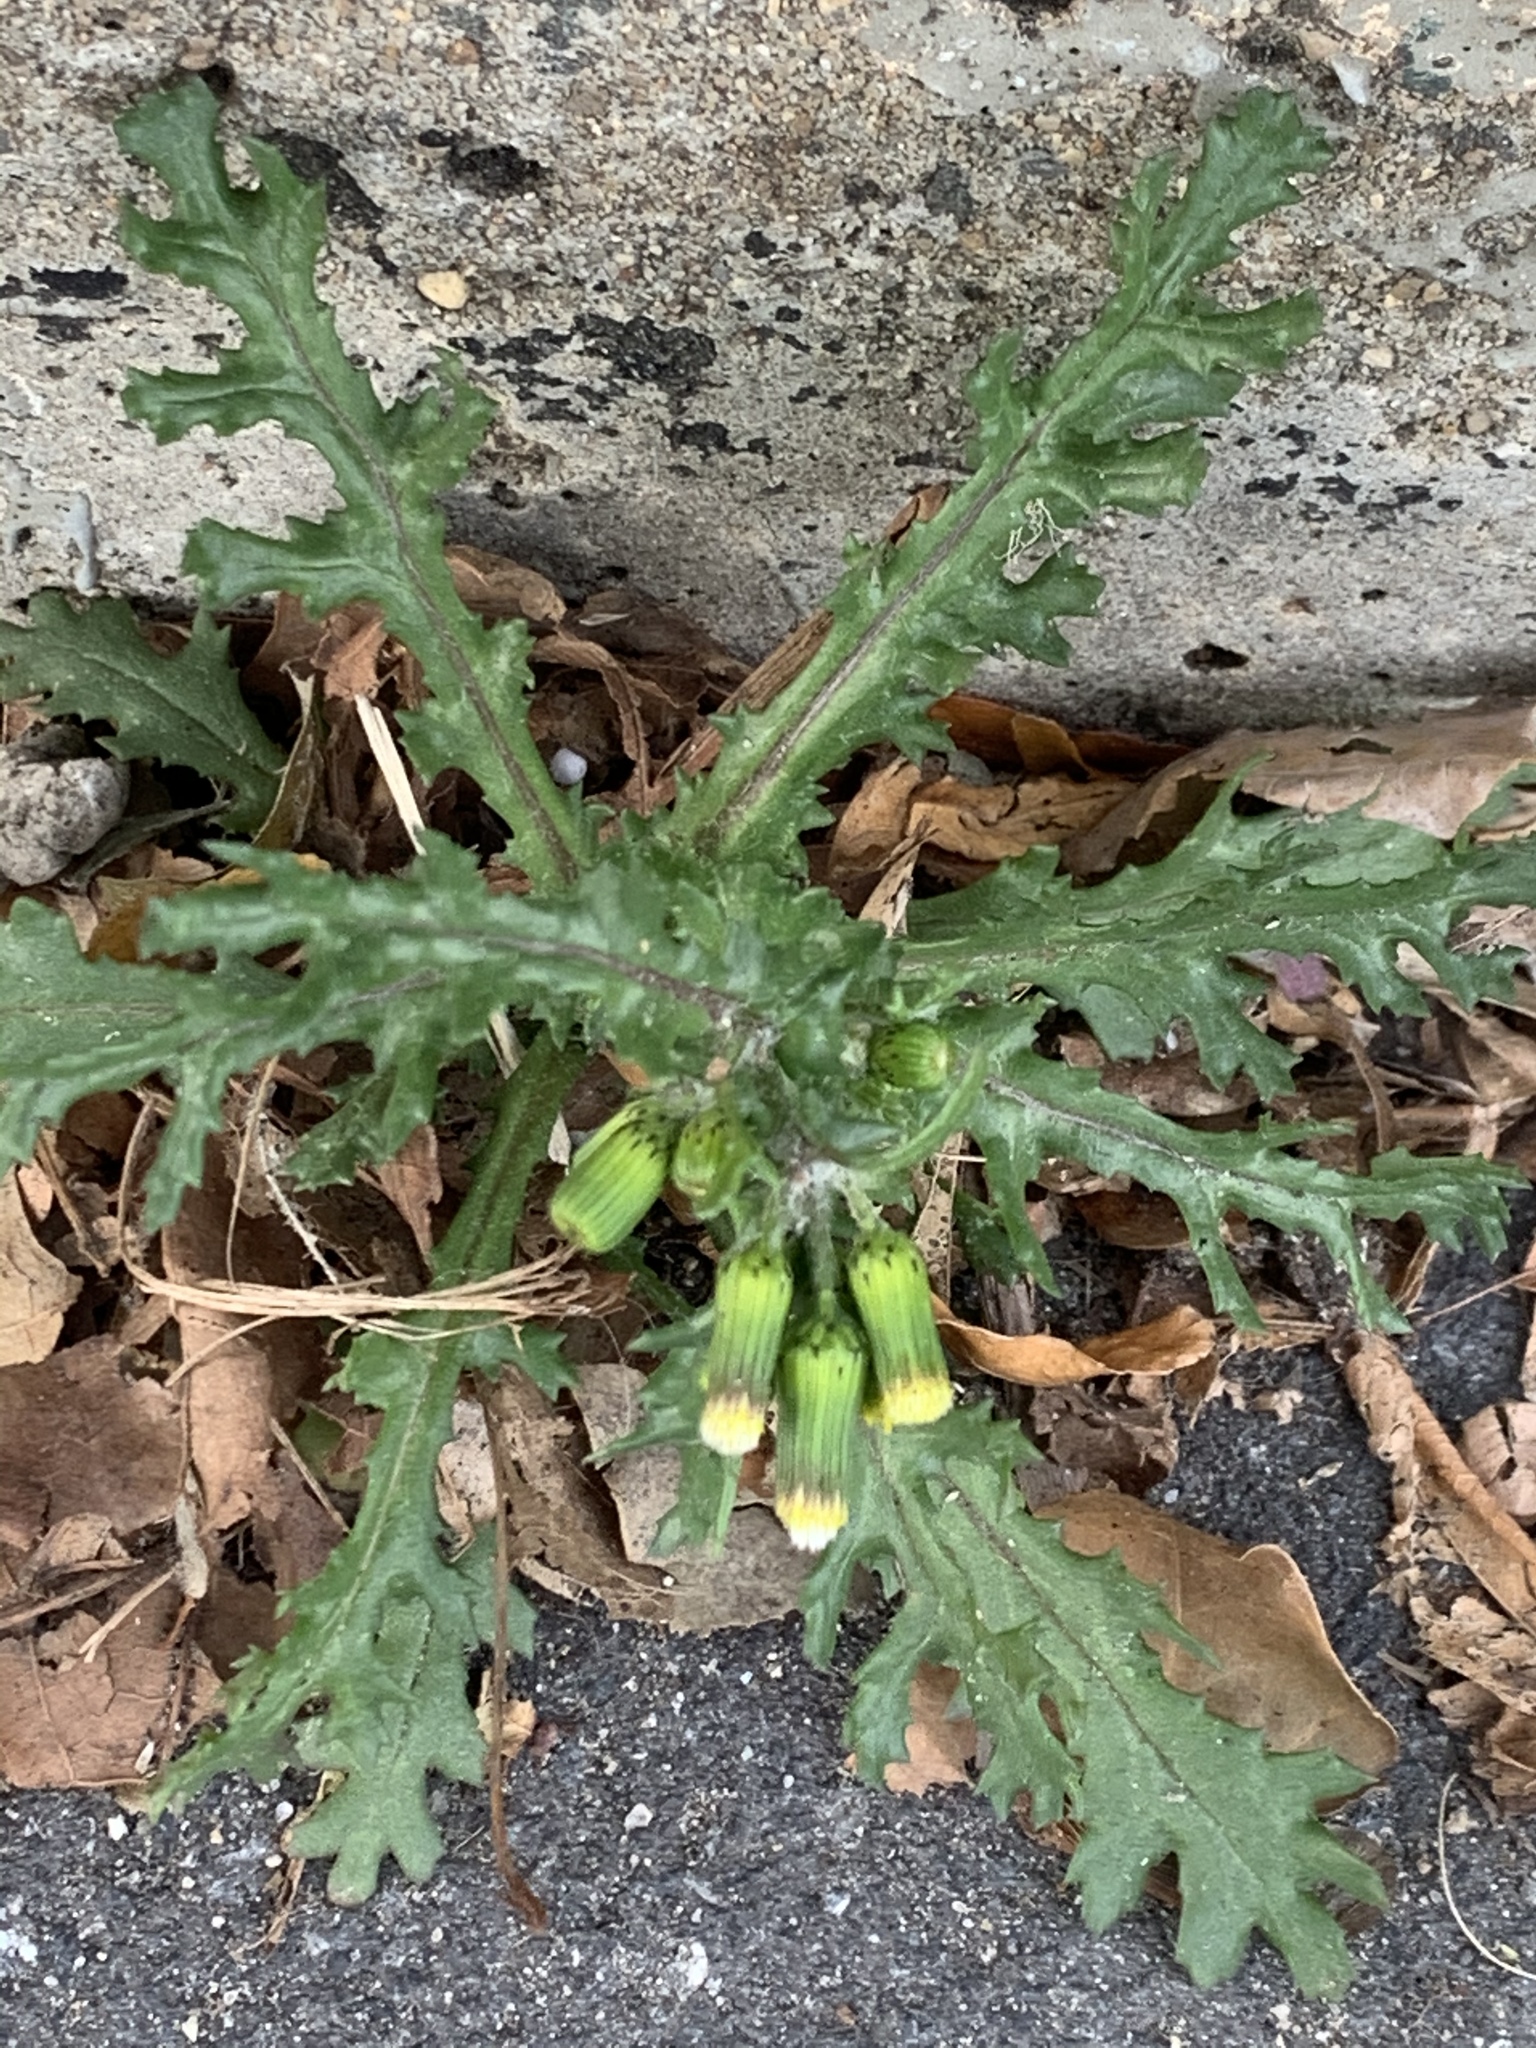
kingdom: Plantae
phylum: Tracheophyta
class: Magnoliopsida
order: Asterales
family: Asteraceae
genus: Senecio
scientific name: Senecio vulgaris
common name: Old-man-in-the-spring
